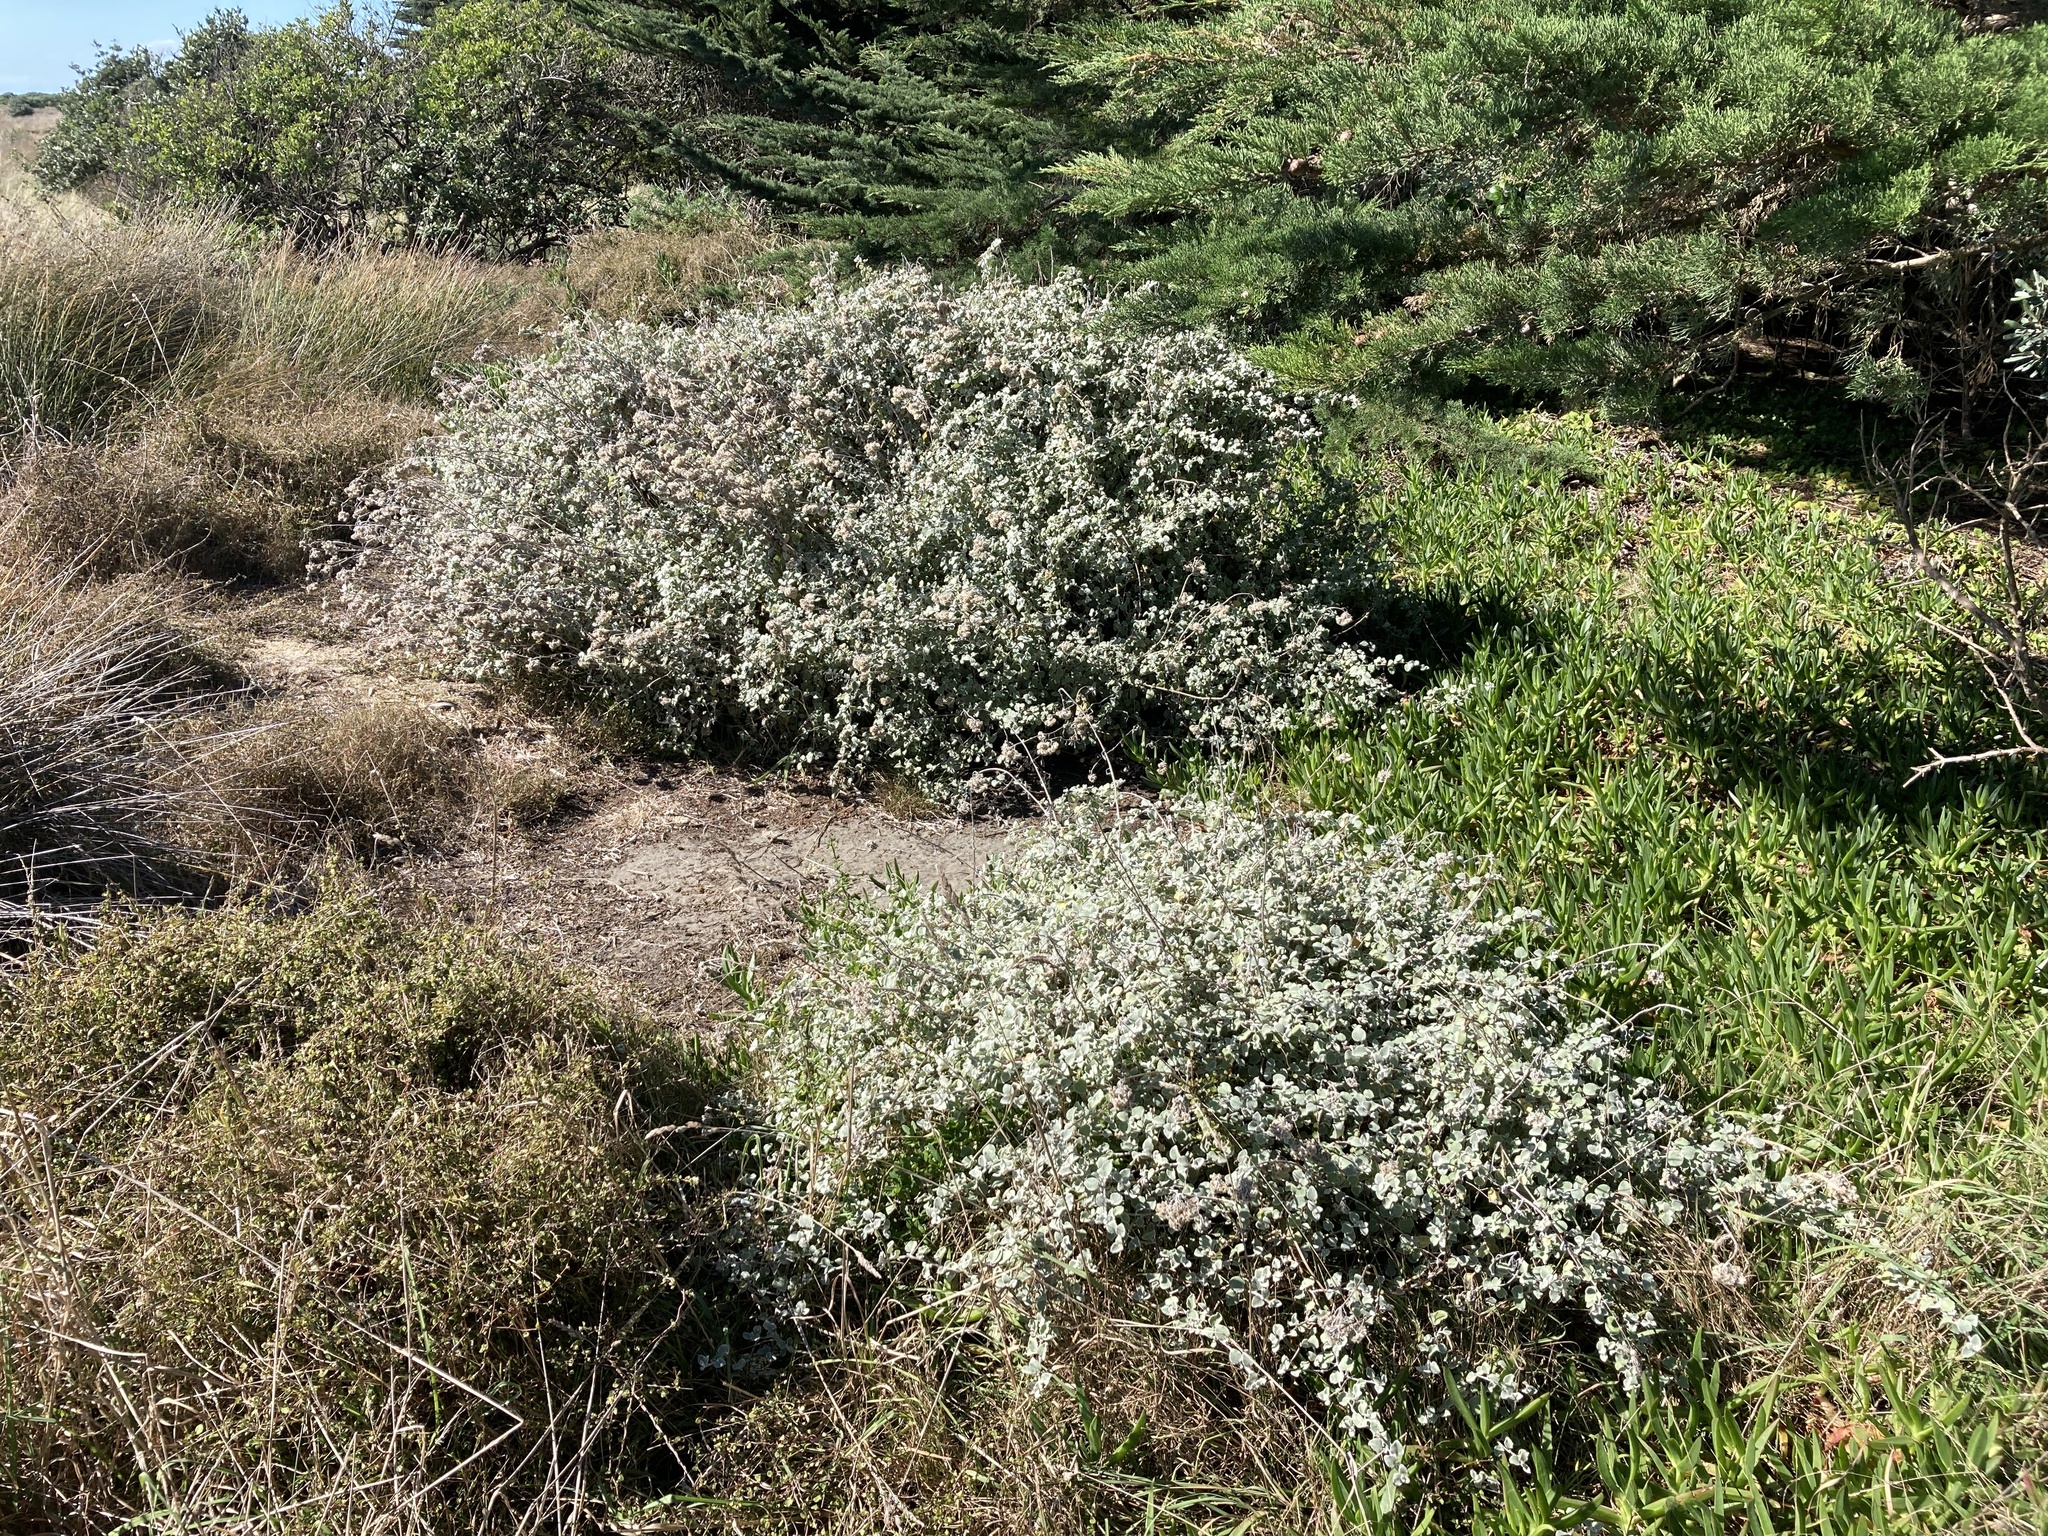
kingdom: Plantae
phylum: Tracheophyta
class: Magnoliopsida
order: Asterales
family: Asteraceae
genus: Helichrysum
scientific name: Helichrysum petiolare
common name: Licorice-plant
